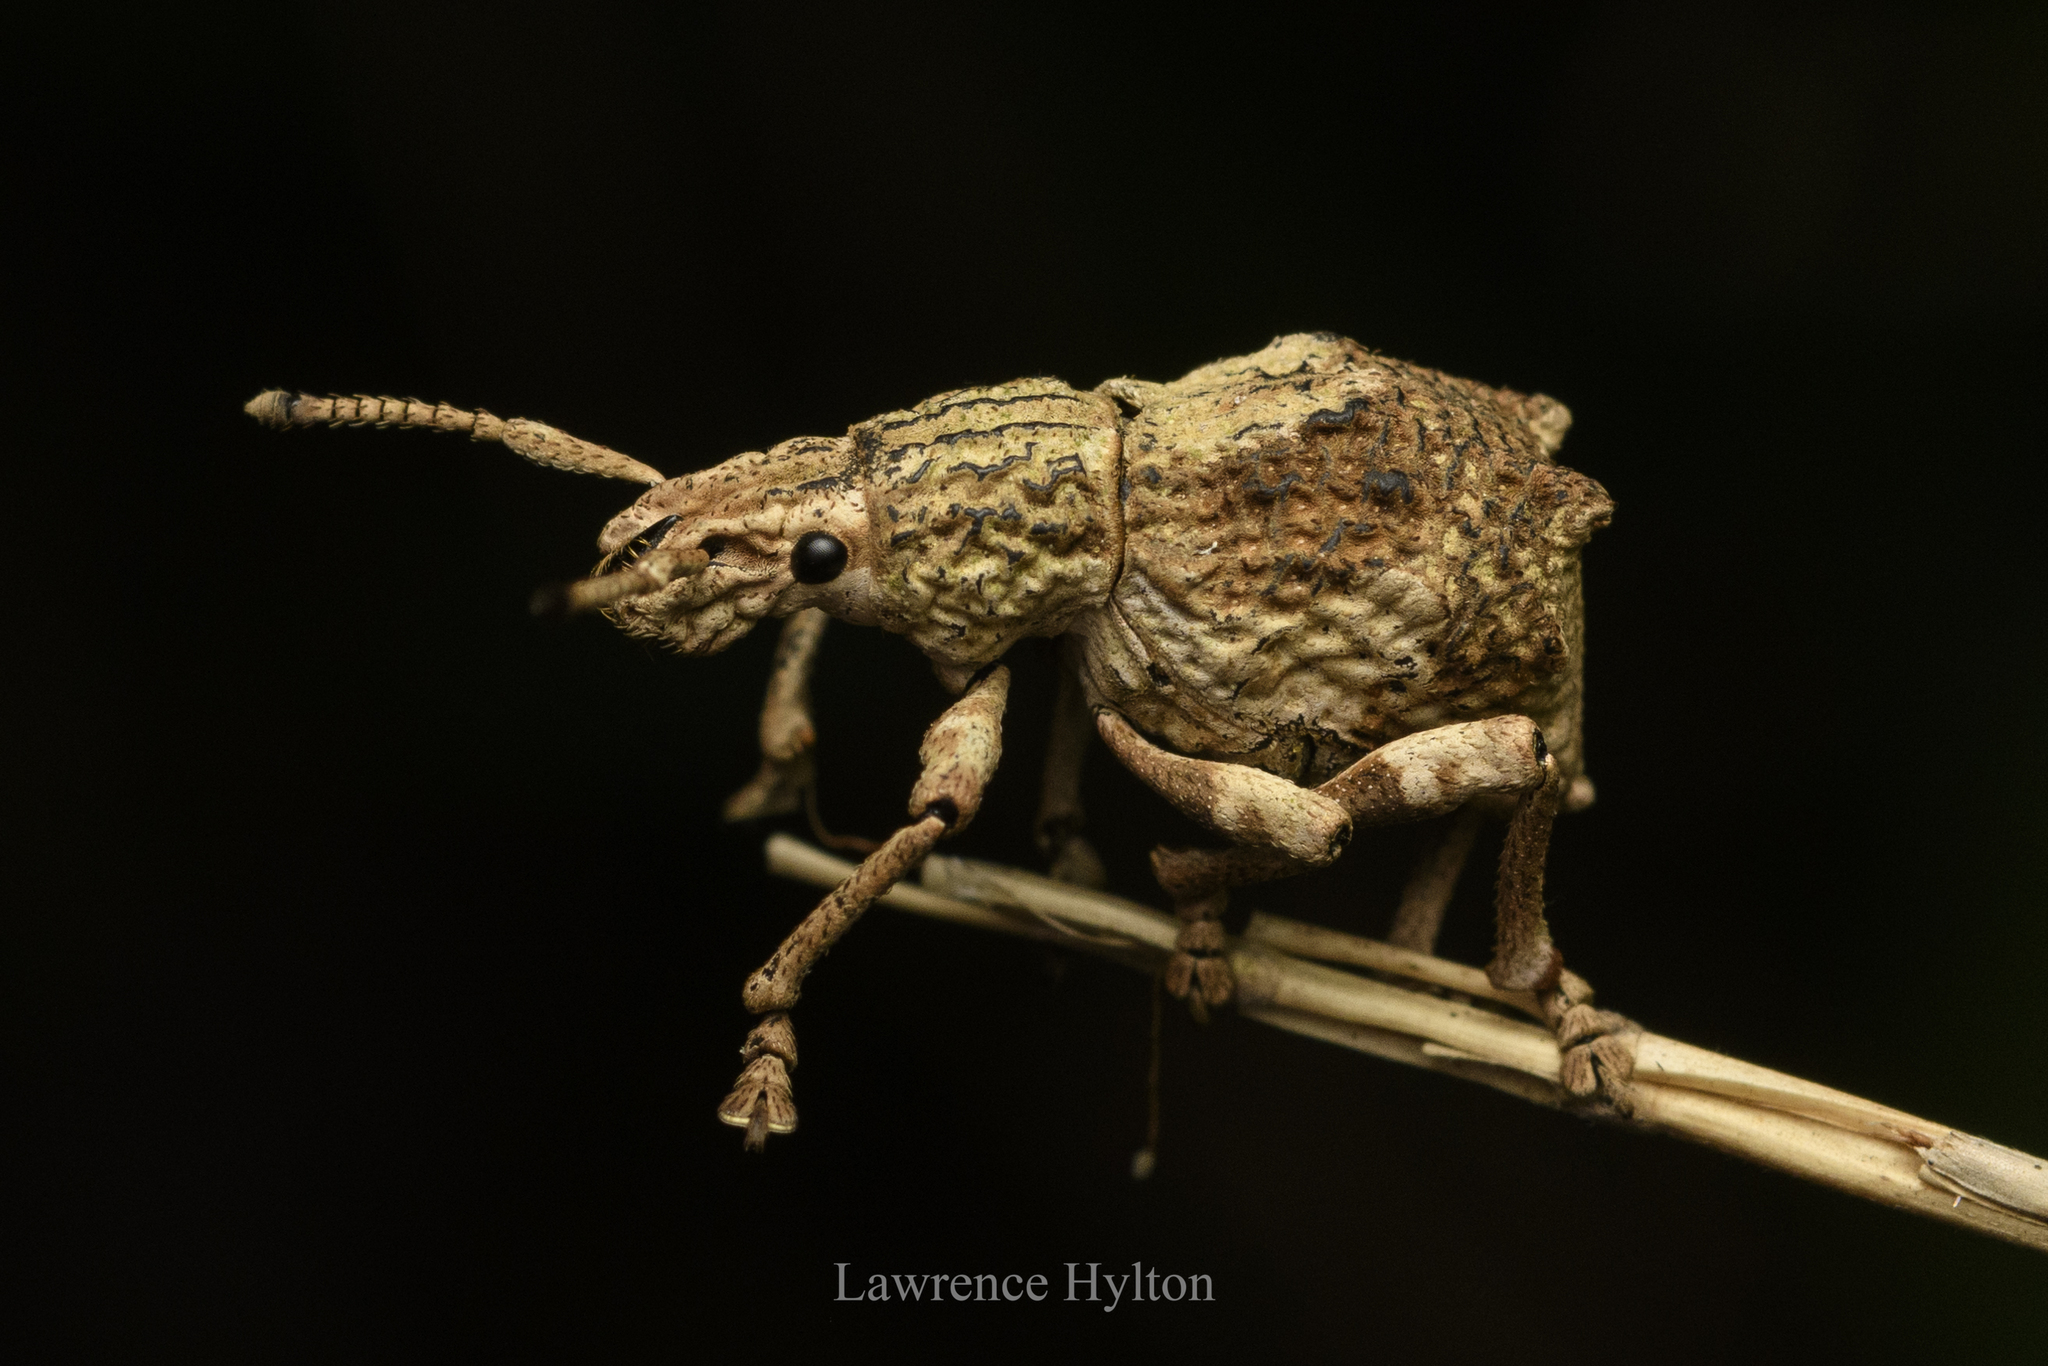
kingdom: Animalia
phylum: Arthropoda
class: Insecta
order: Coleoptera
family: Curculionidae
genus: Episomus
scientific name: Episomus
